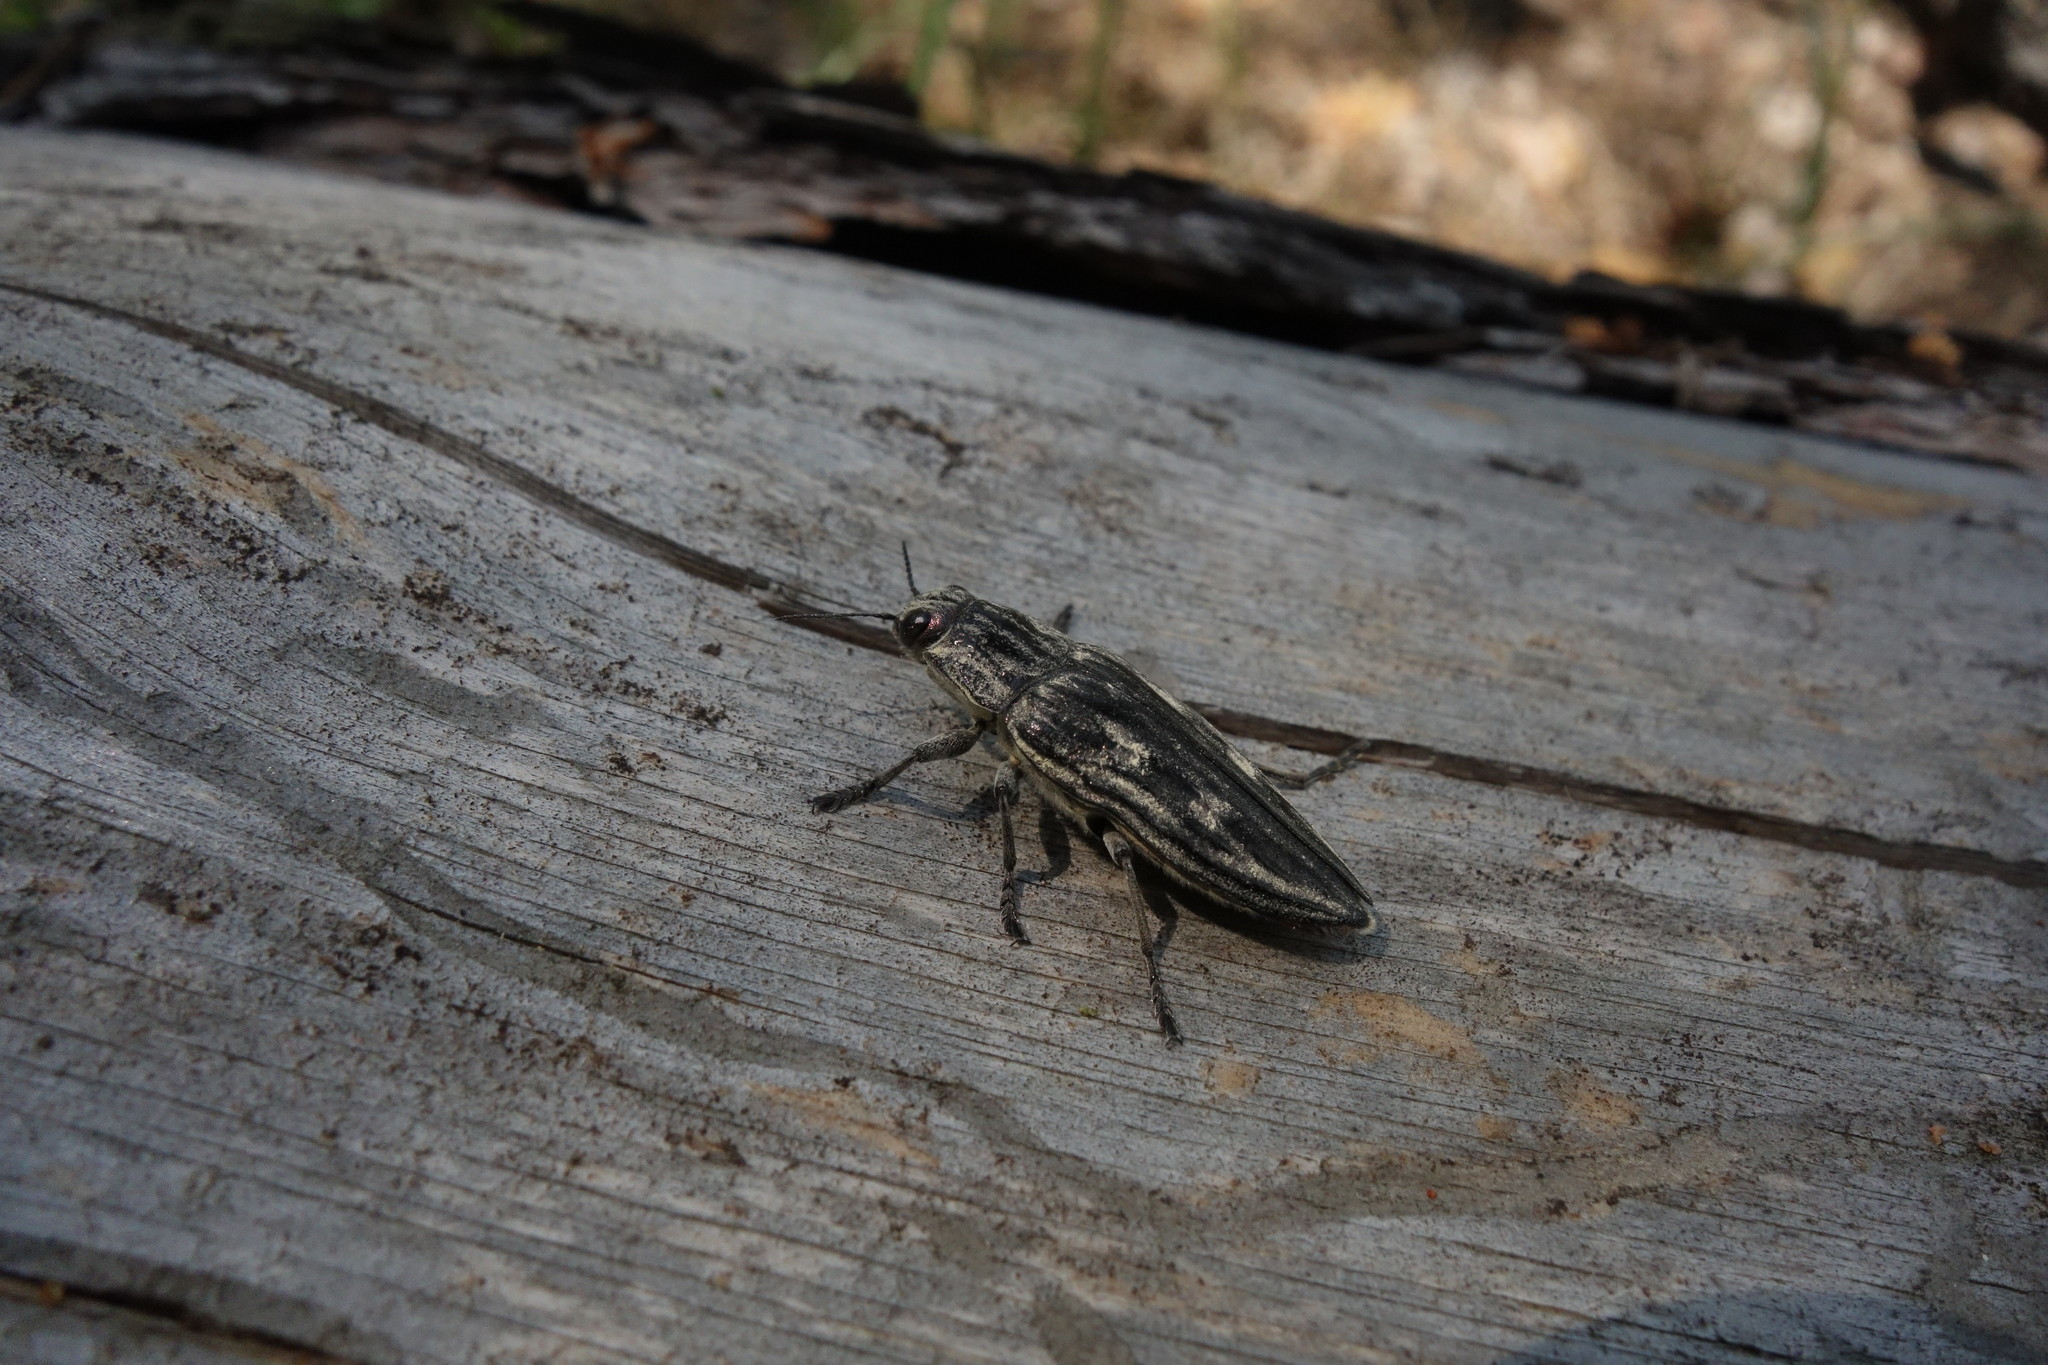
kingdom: Animalia
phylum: Arthropoda
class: Insecta
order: Coleoptera
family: Buprestidae
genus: Chalcophora
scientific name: Chalcophora mariana
